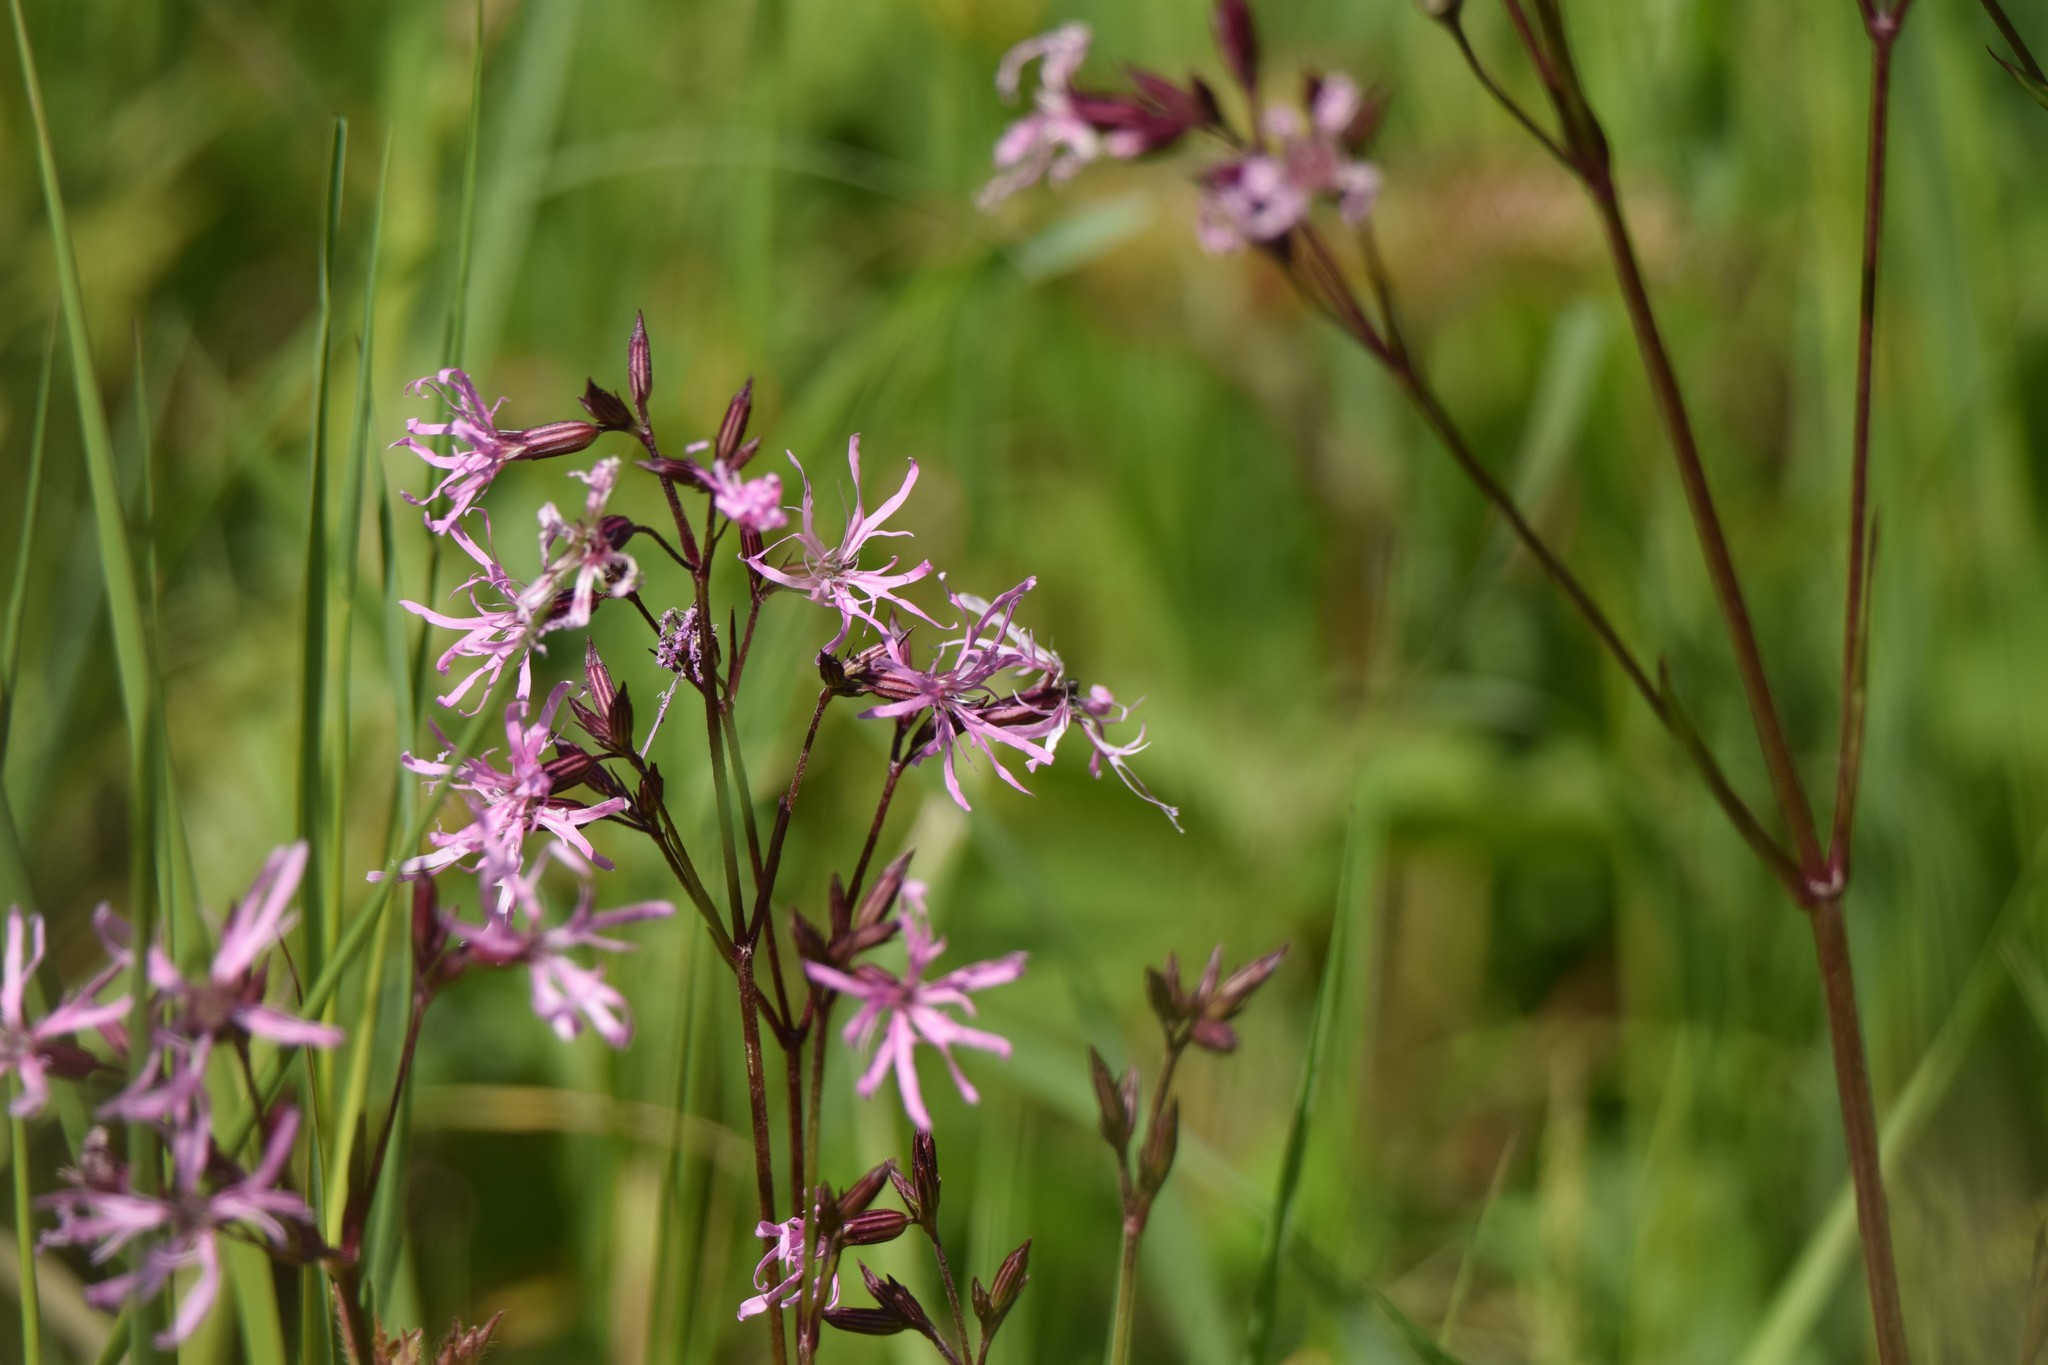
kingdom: Plantae
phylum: Tracheophyta
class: Magnoliopsida
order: Caryophyllales
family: Caryophyllaceae
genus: Silene
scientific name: Silene flos-cuculi
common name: Ragged-robin
